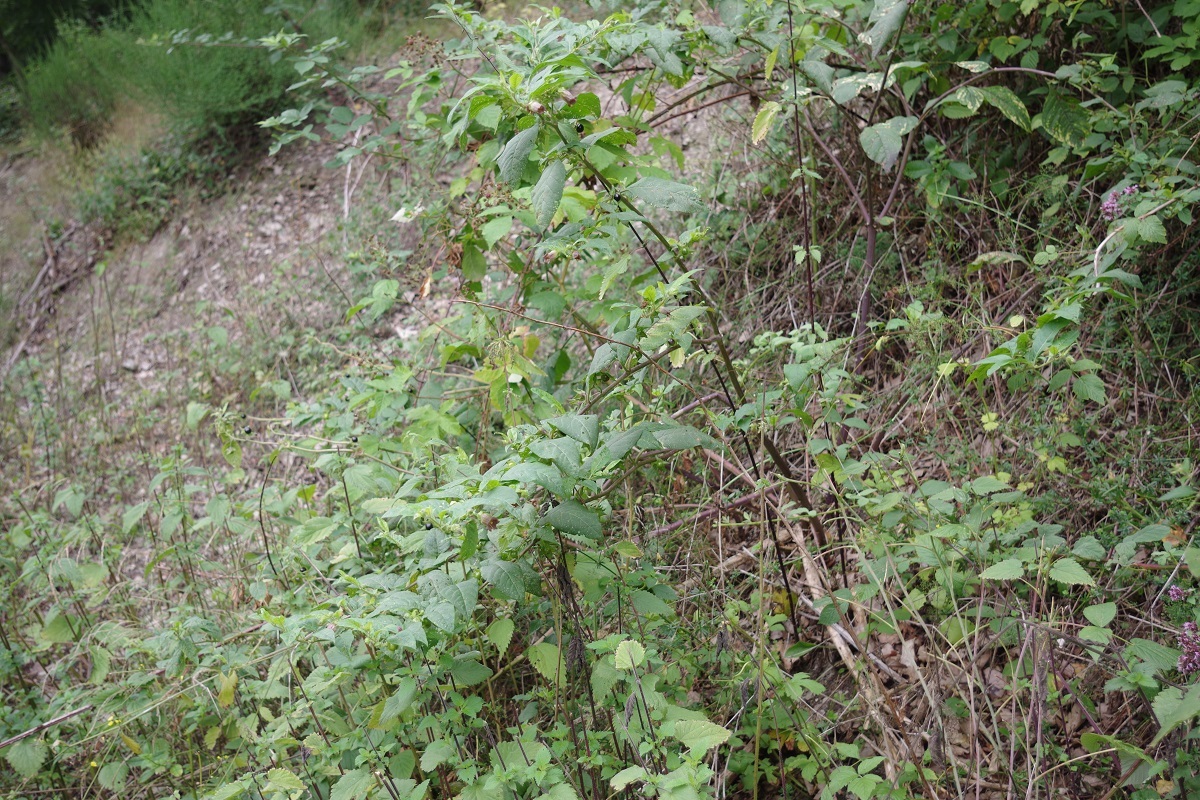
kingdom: Plantae
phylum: Tracheophyta
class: Magnoliopsida
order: Solanales
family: Solanaceae
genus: Atropa
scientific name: Atropa belladonna
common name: Deadly nightshade
